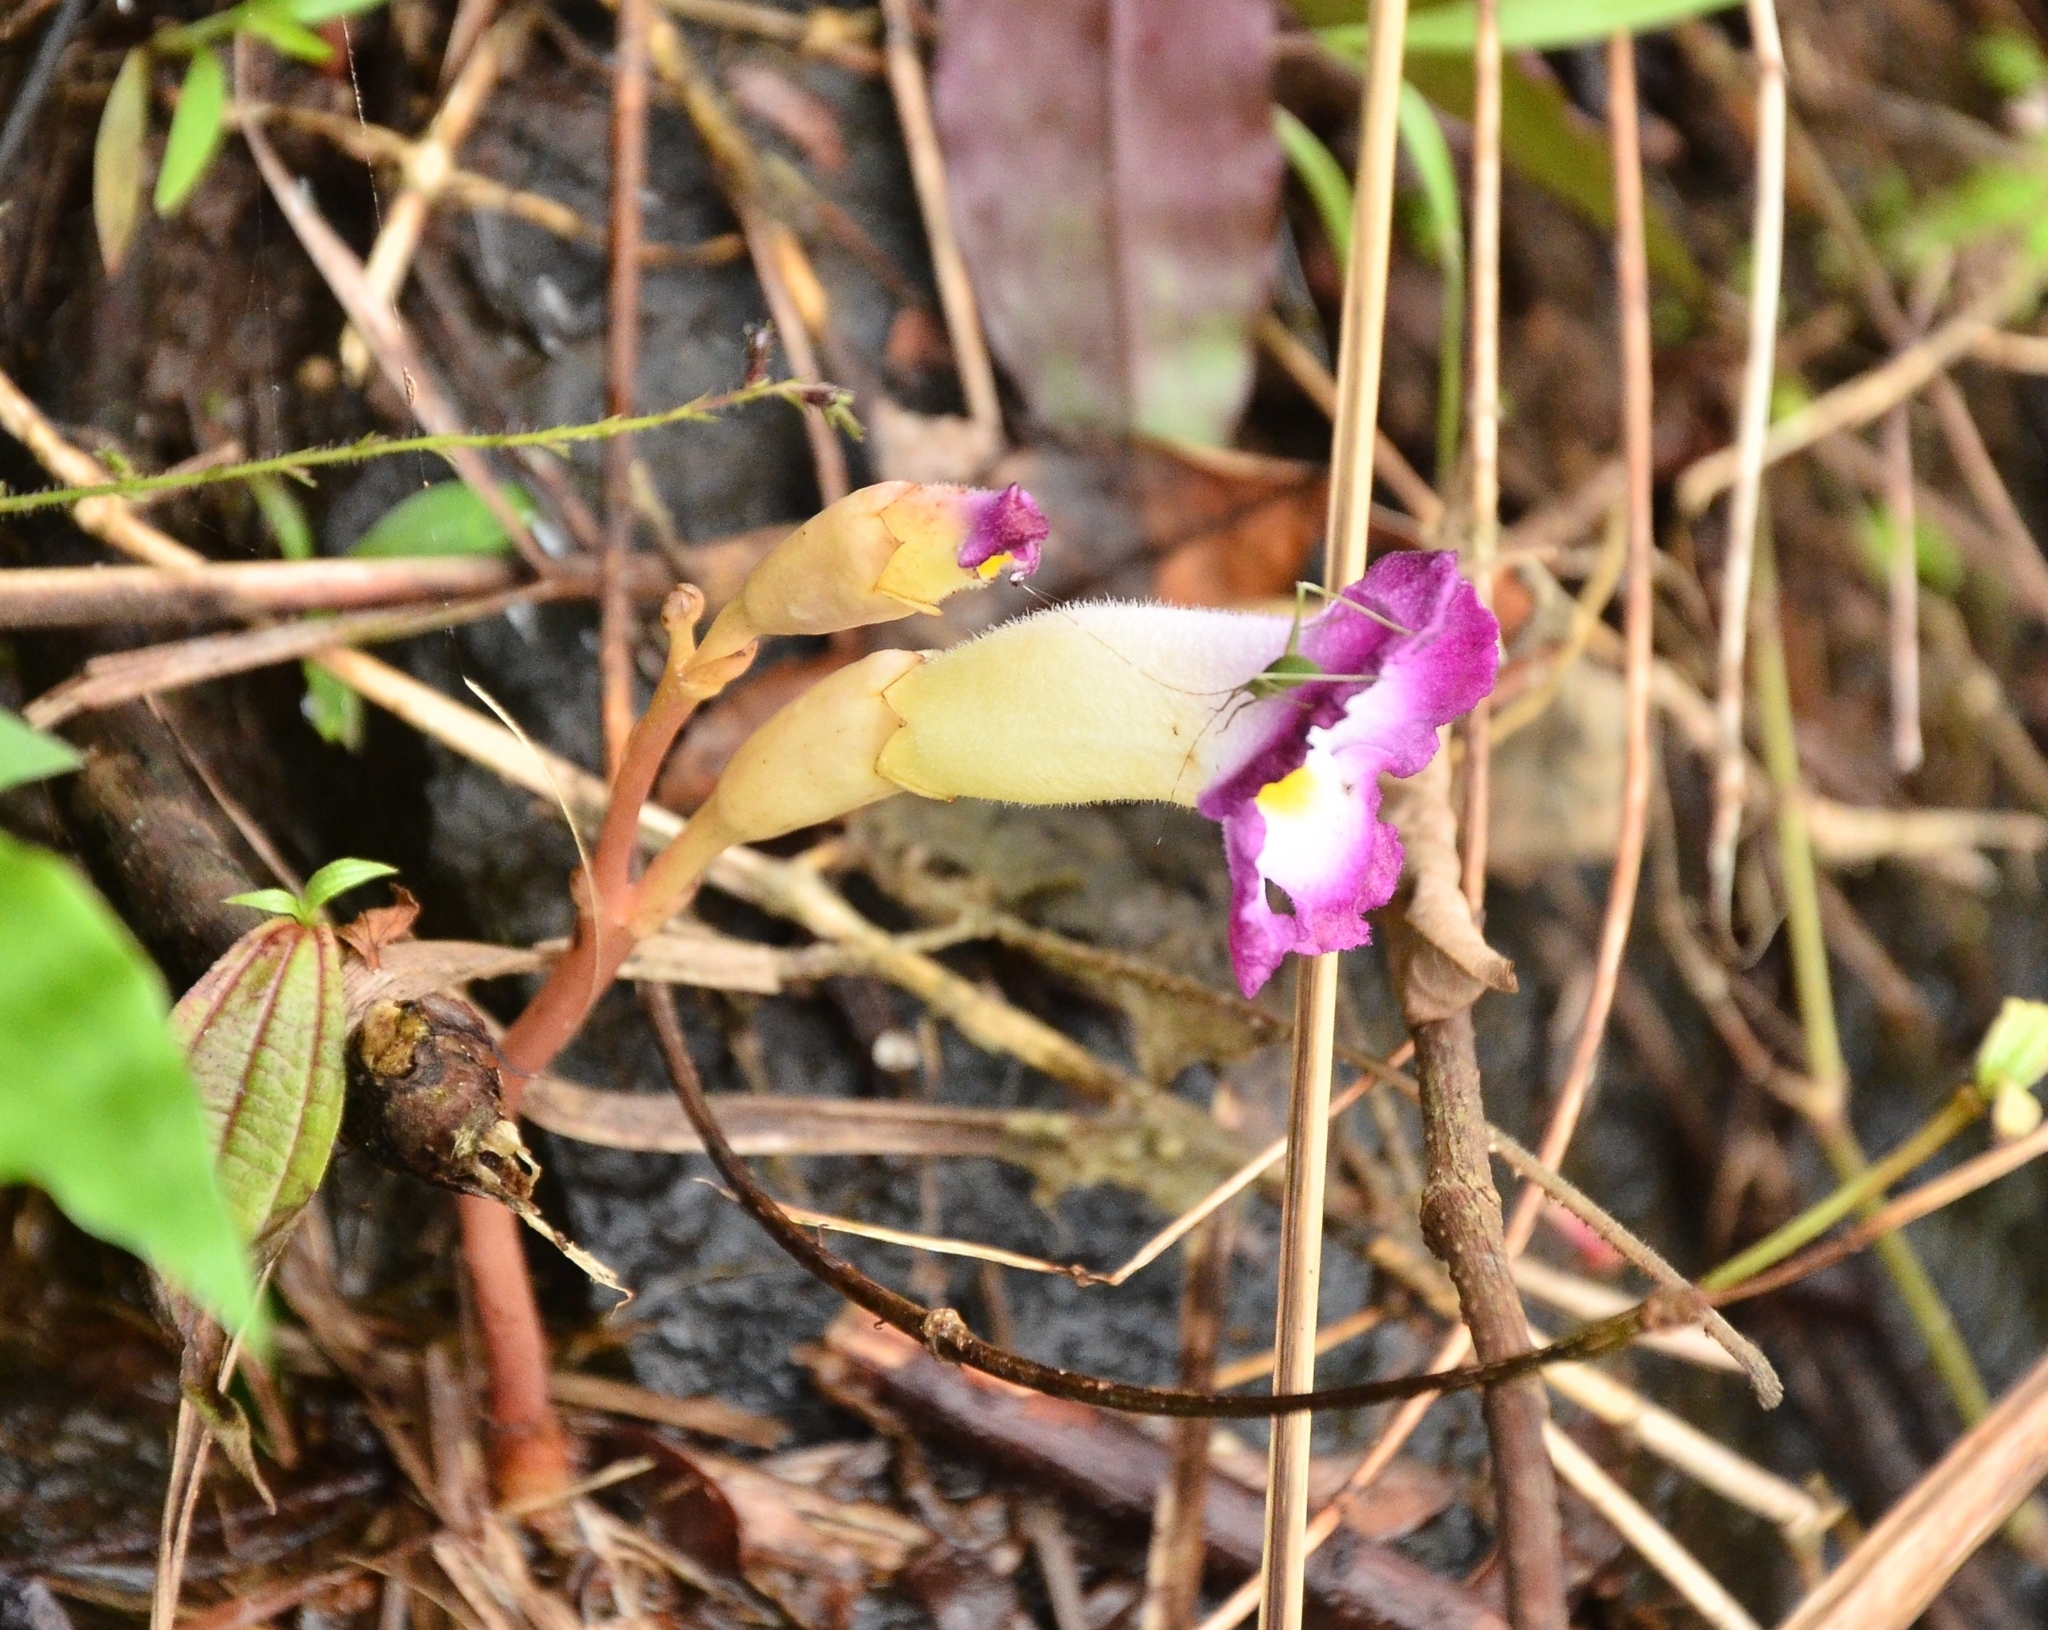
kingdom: Plantae
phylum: Tracheophyta
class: Magnoliopsida
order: Lamiales
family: Orobanchaceae
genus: Christisonia
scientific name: Christisonia tubulosa
